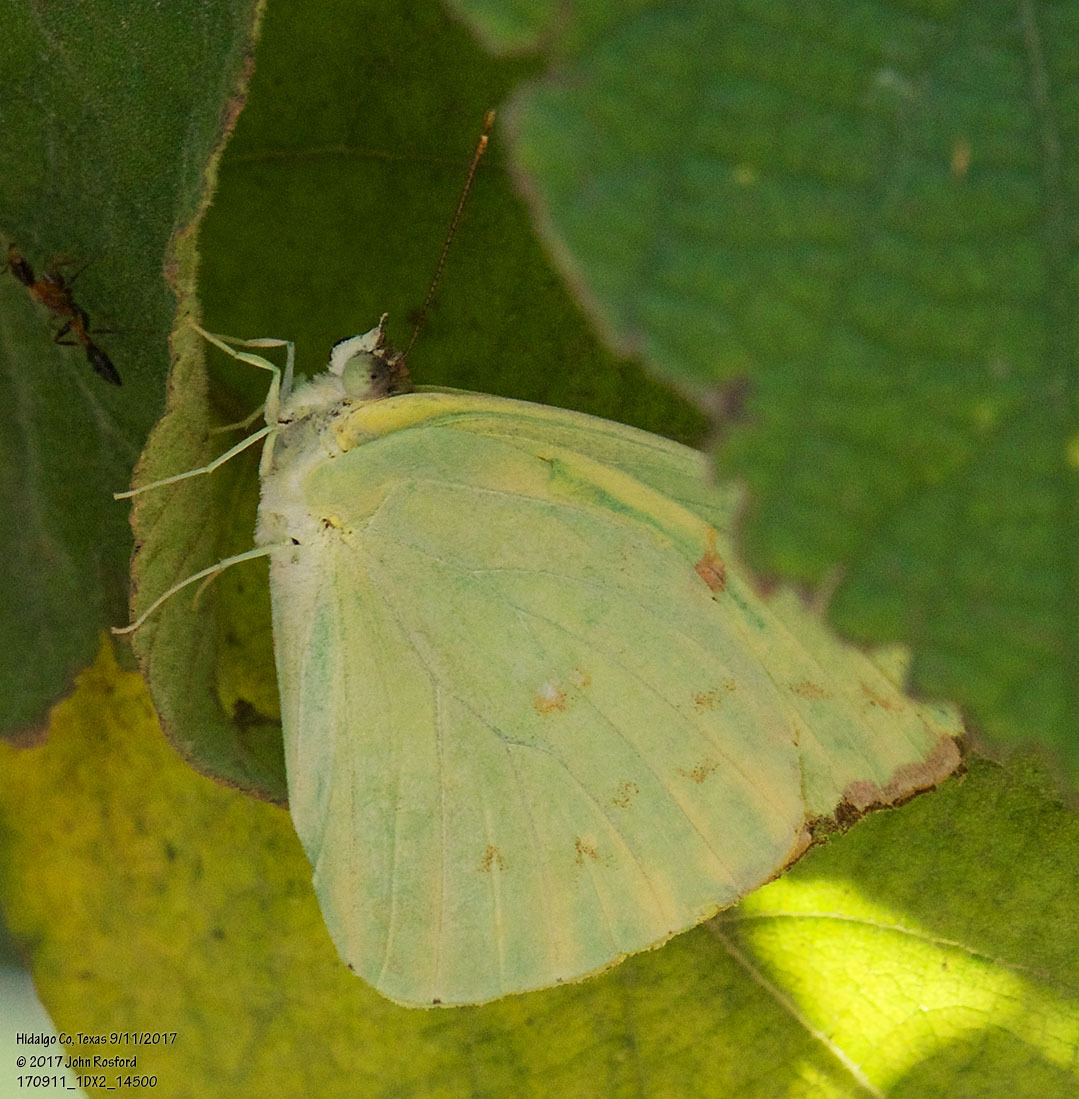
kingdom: Animalia
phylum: Arthropoda
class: Insecta
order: Lepidoptera
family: Pieridae
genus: Aphrissa
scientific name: Aphrissa statira
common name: Statira sulphur
